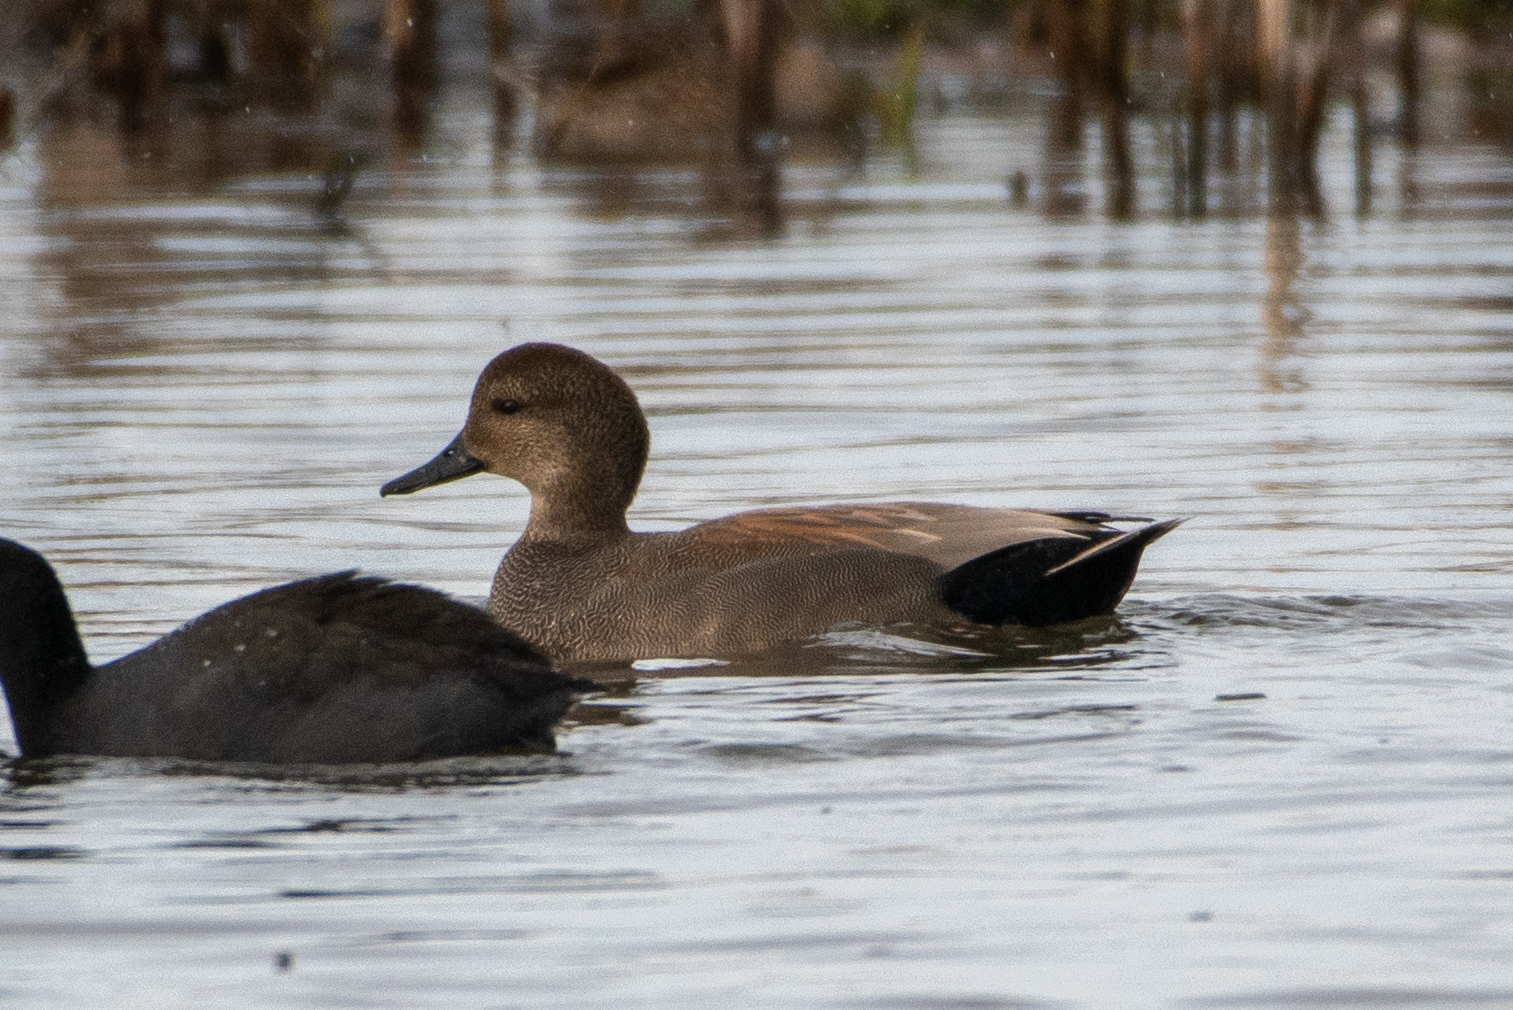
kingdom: Animalia
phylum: Chordata
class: Aves
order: Anseriformes
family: Anatidae
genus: Mareca
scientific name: Mareca strepera
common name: Gadwall
